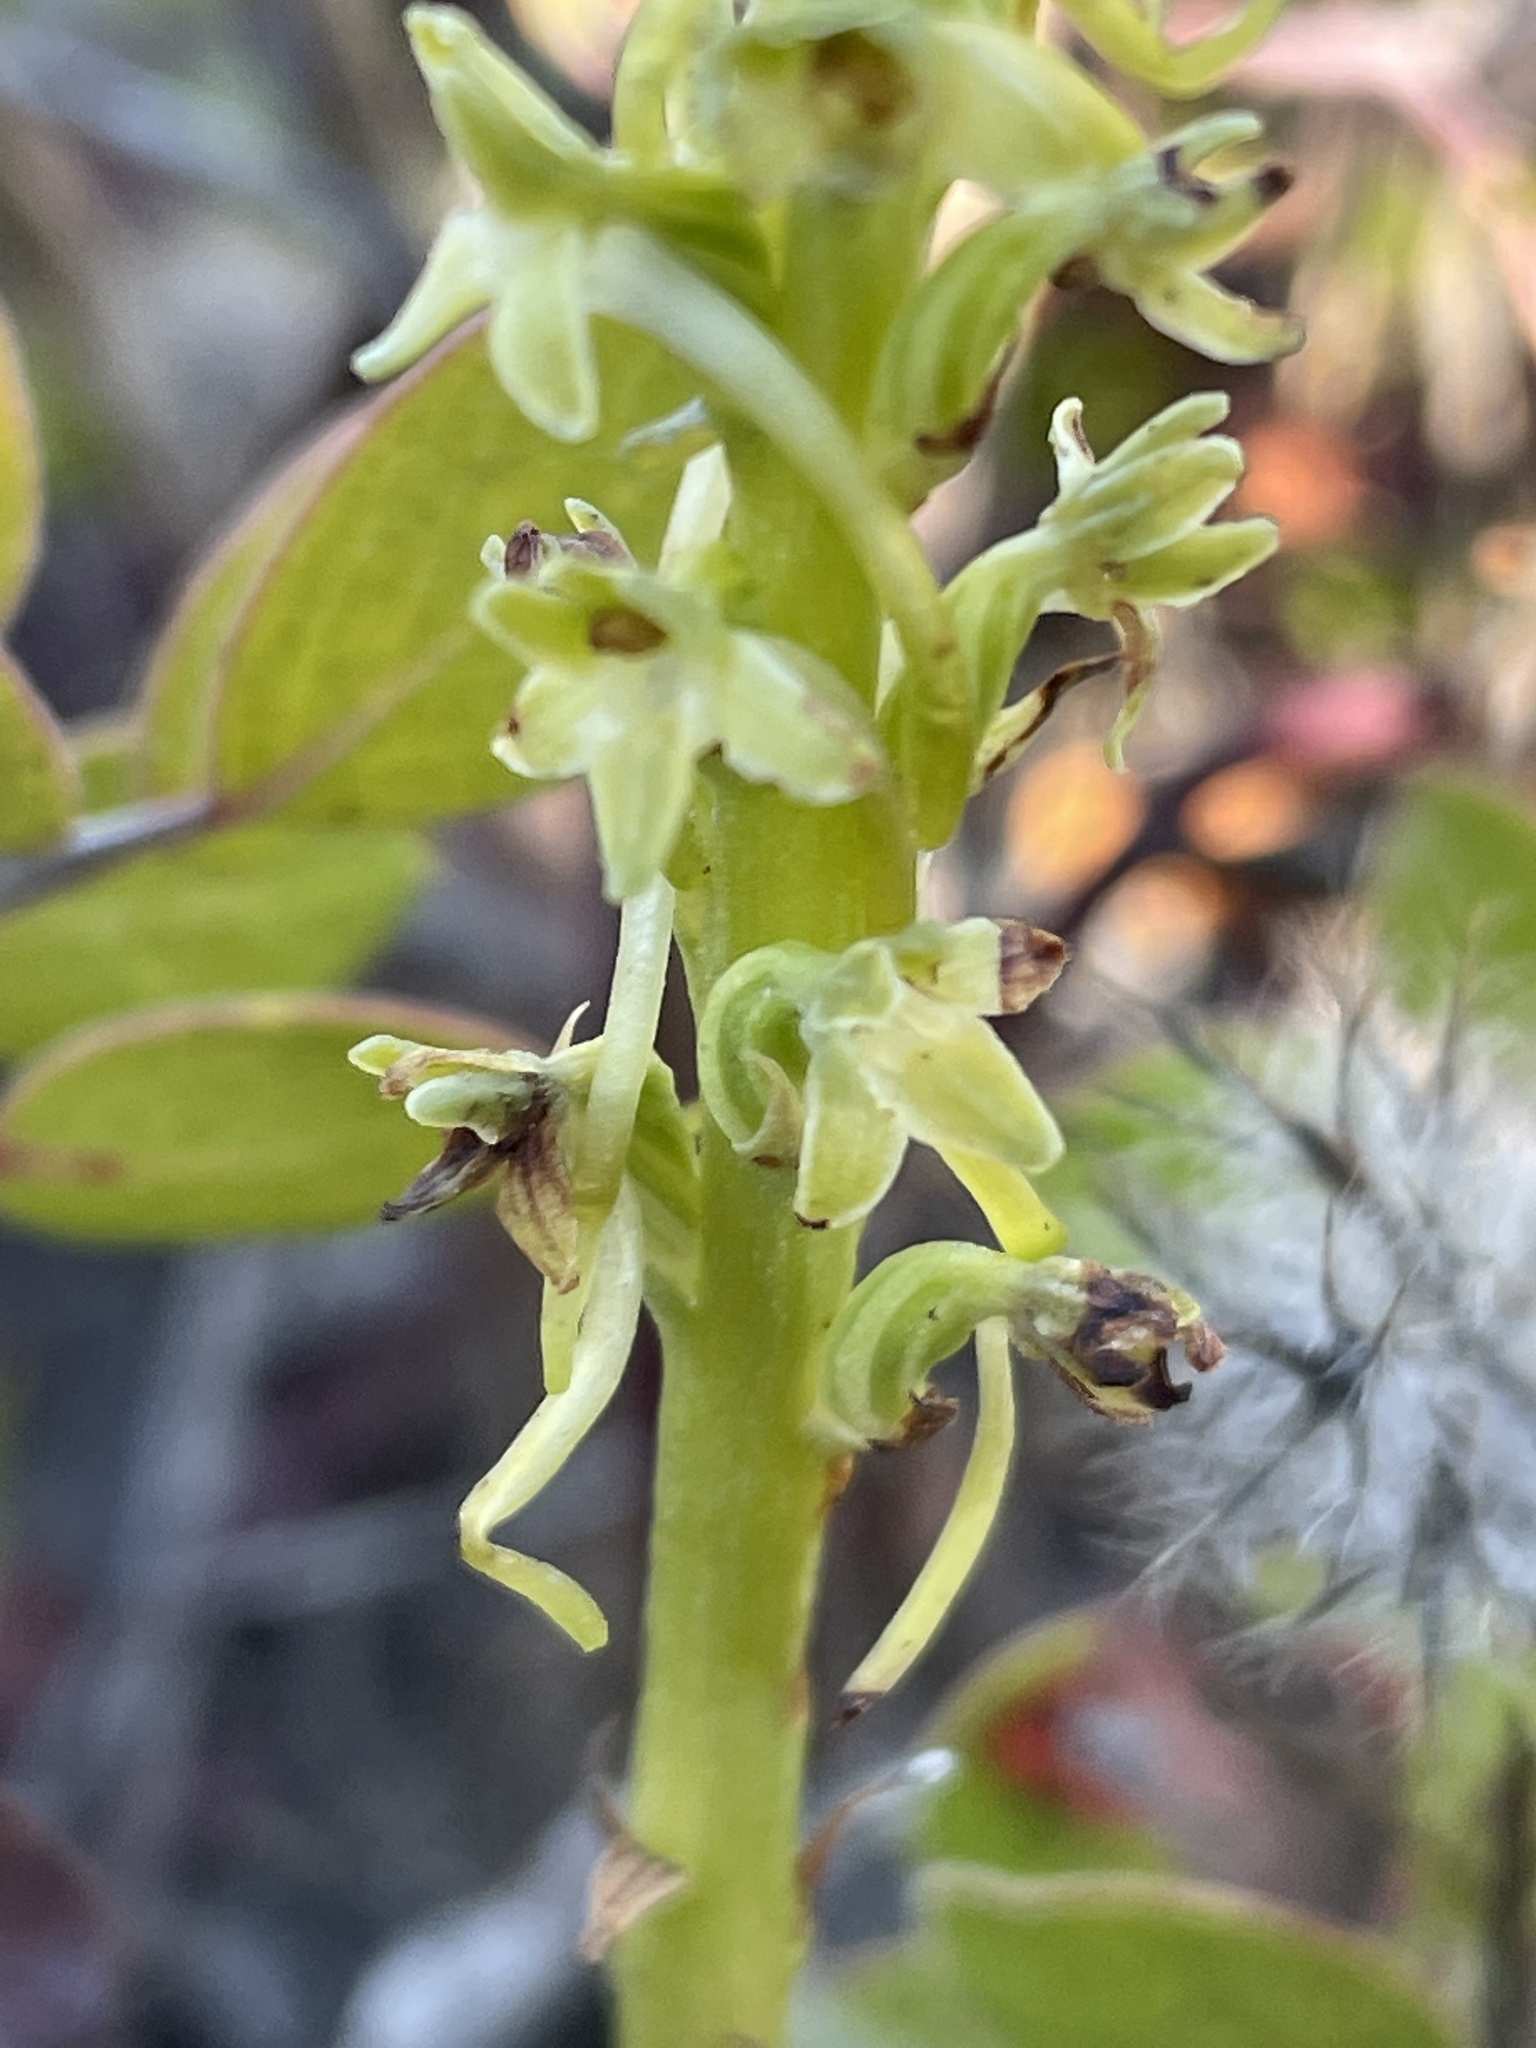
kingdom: Plantae
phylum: Tracheophyta
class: Liliopsida
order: Asparagales
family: Orchidaceae
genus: Platanthera
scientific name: Platanthera michaelii
